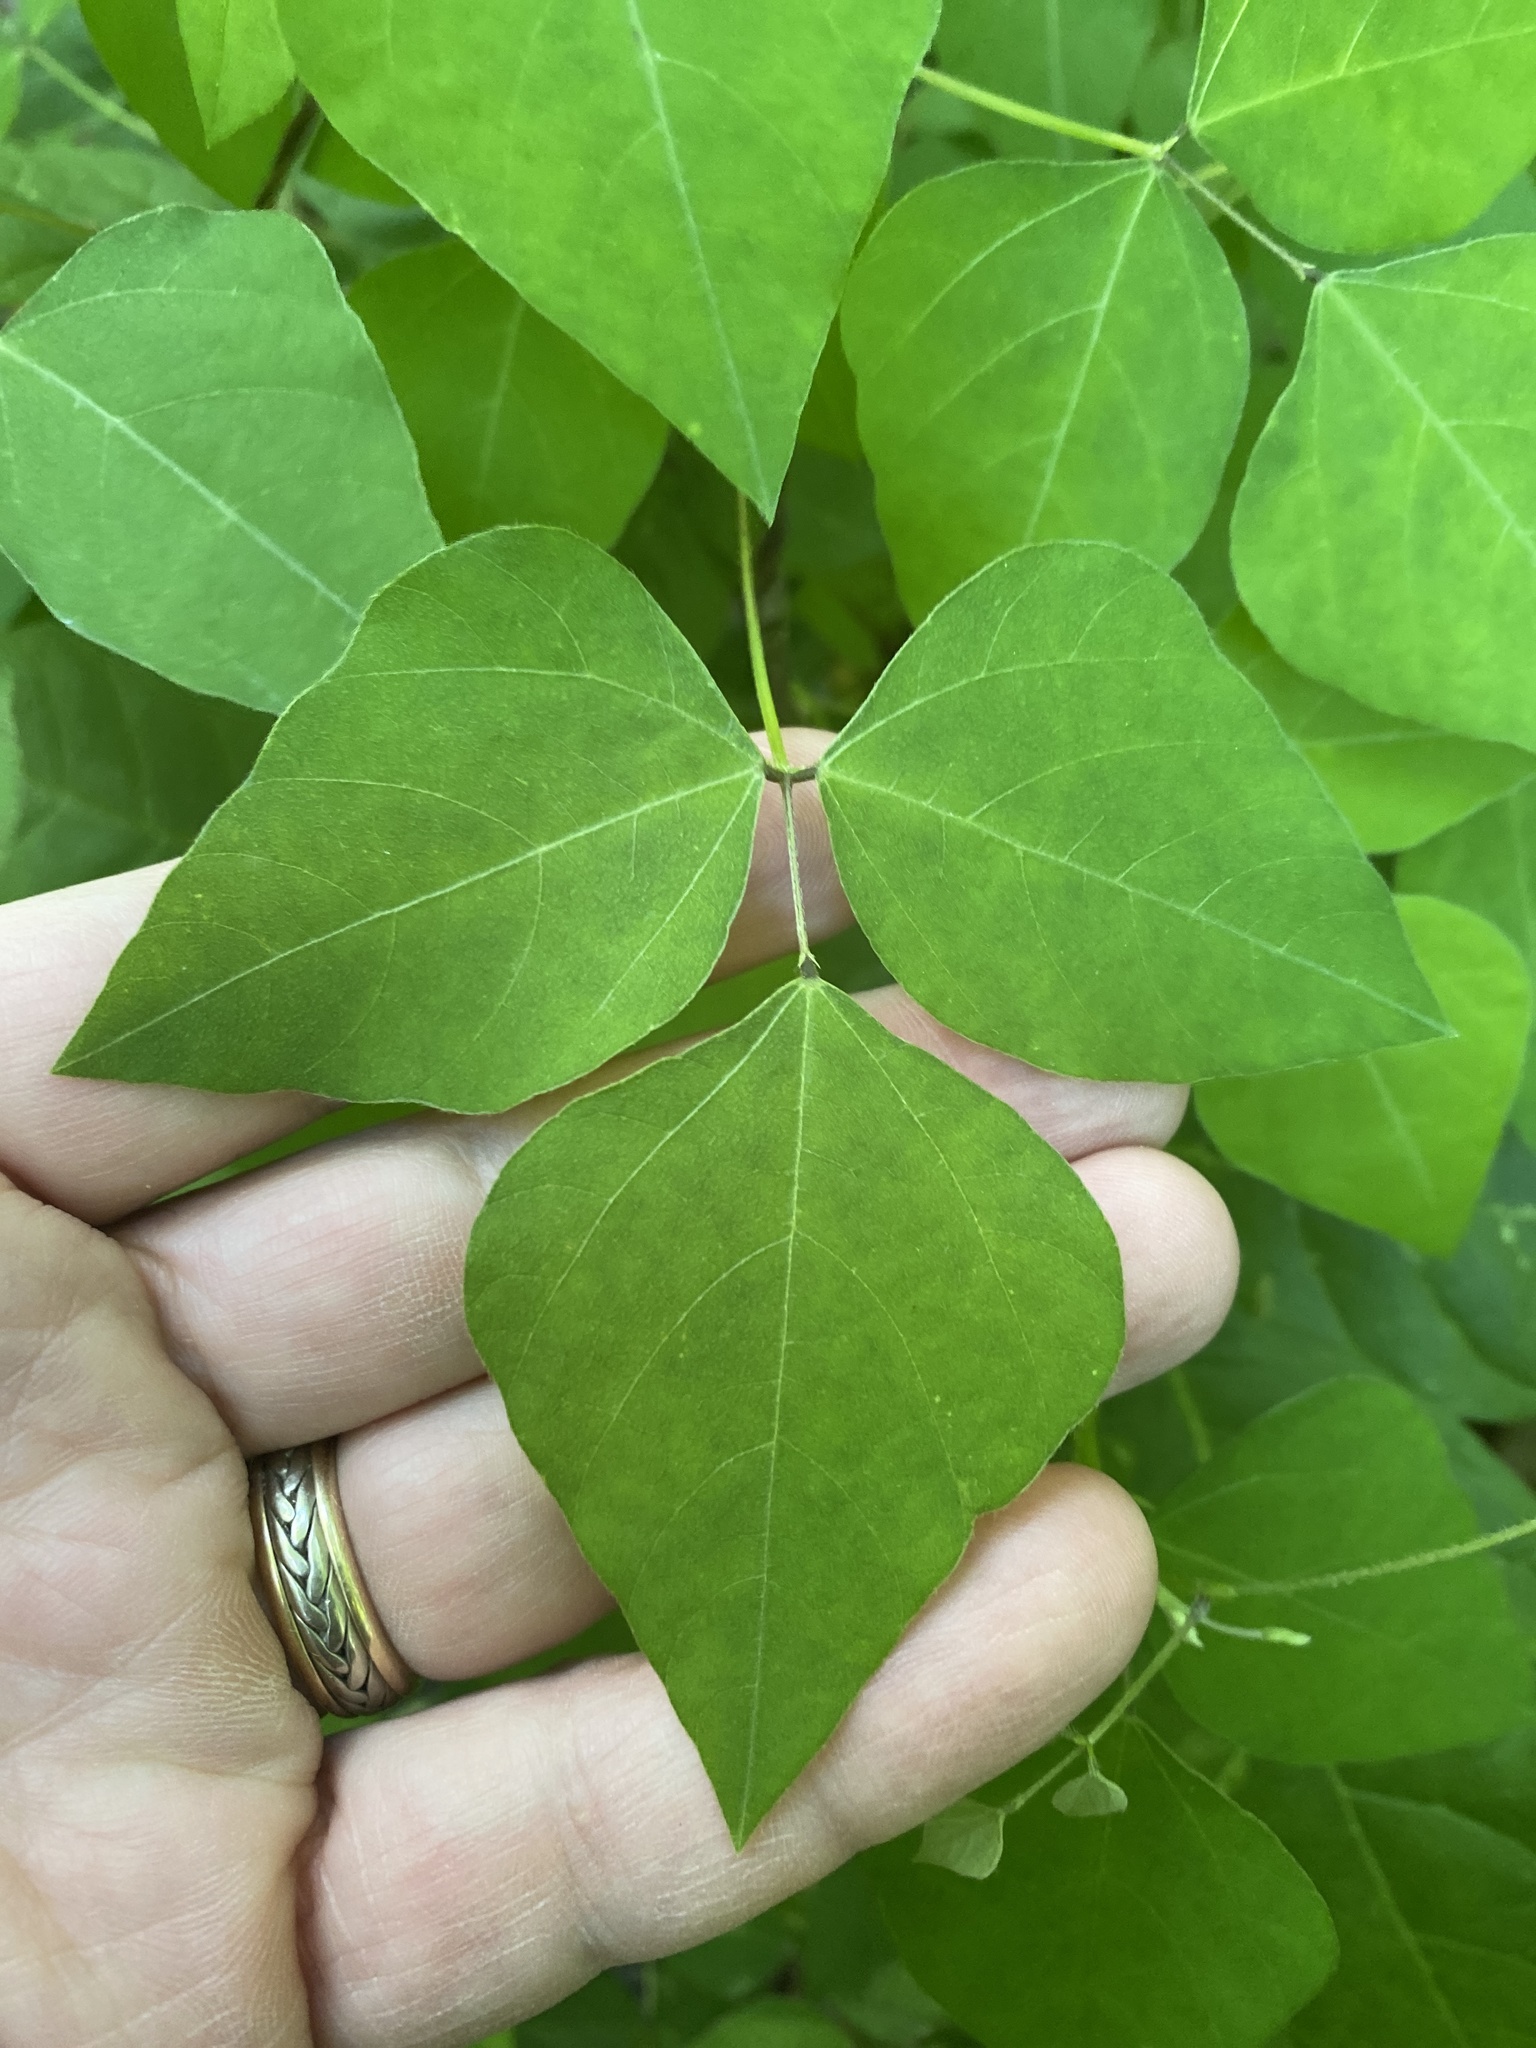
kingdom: Plantae
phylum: Tracheophyta
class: Magnoliopsida
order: Fabales
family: Fabaceae
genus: Amphicarpaea
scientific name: Amphicarpaea bracteata
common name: American hog peanut
